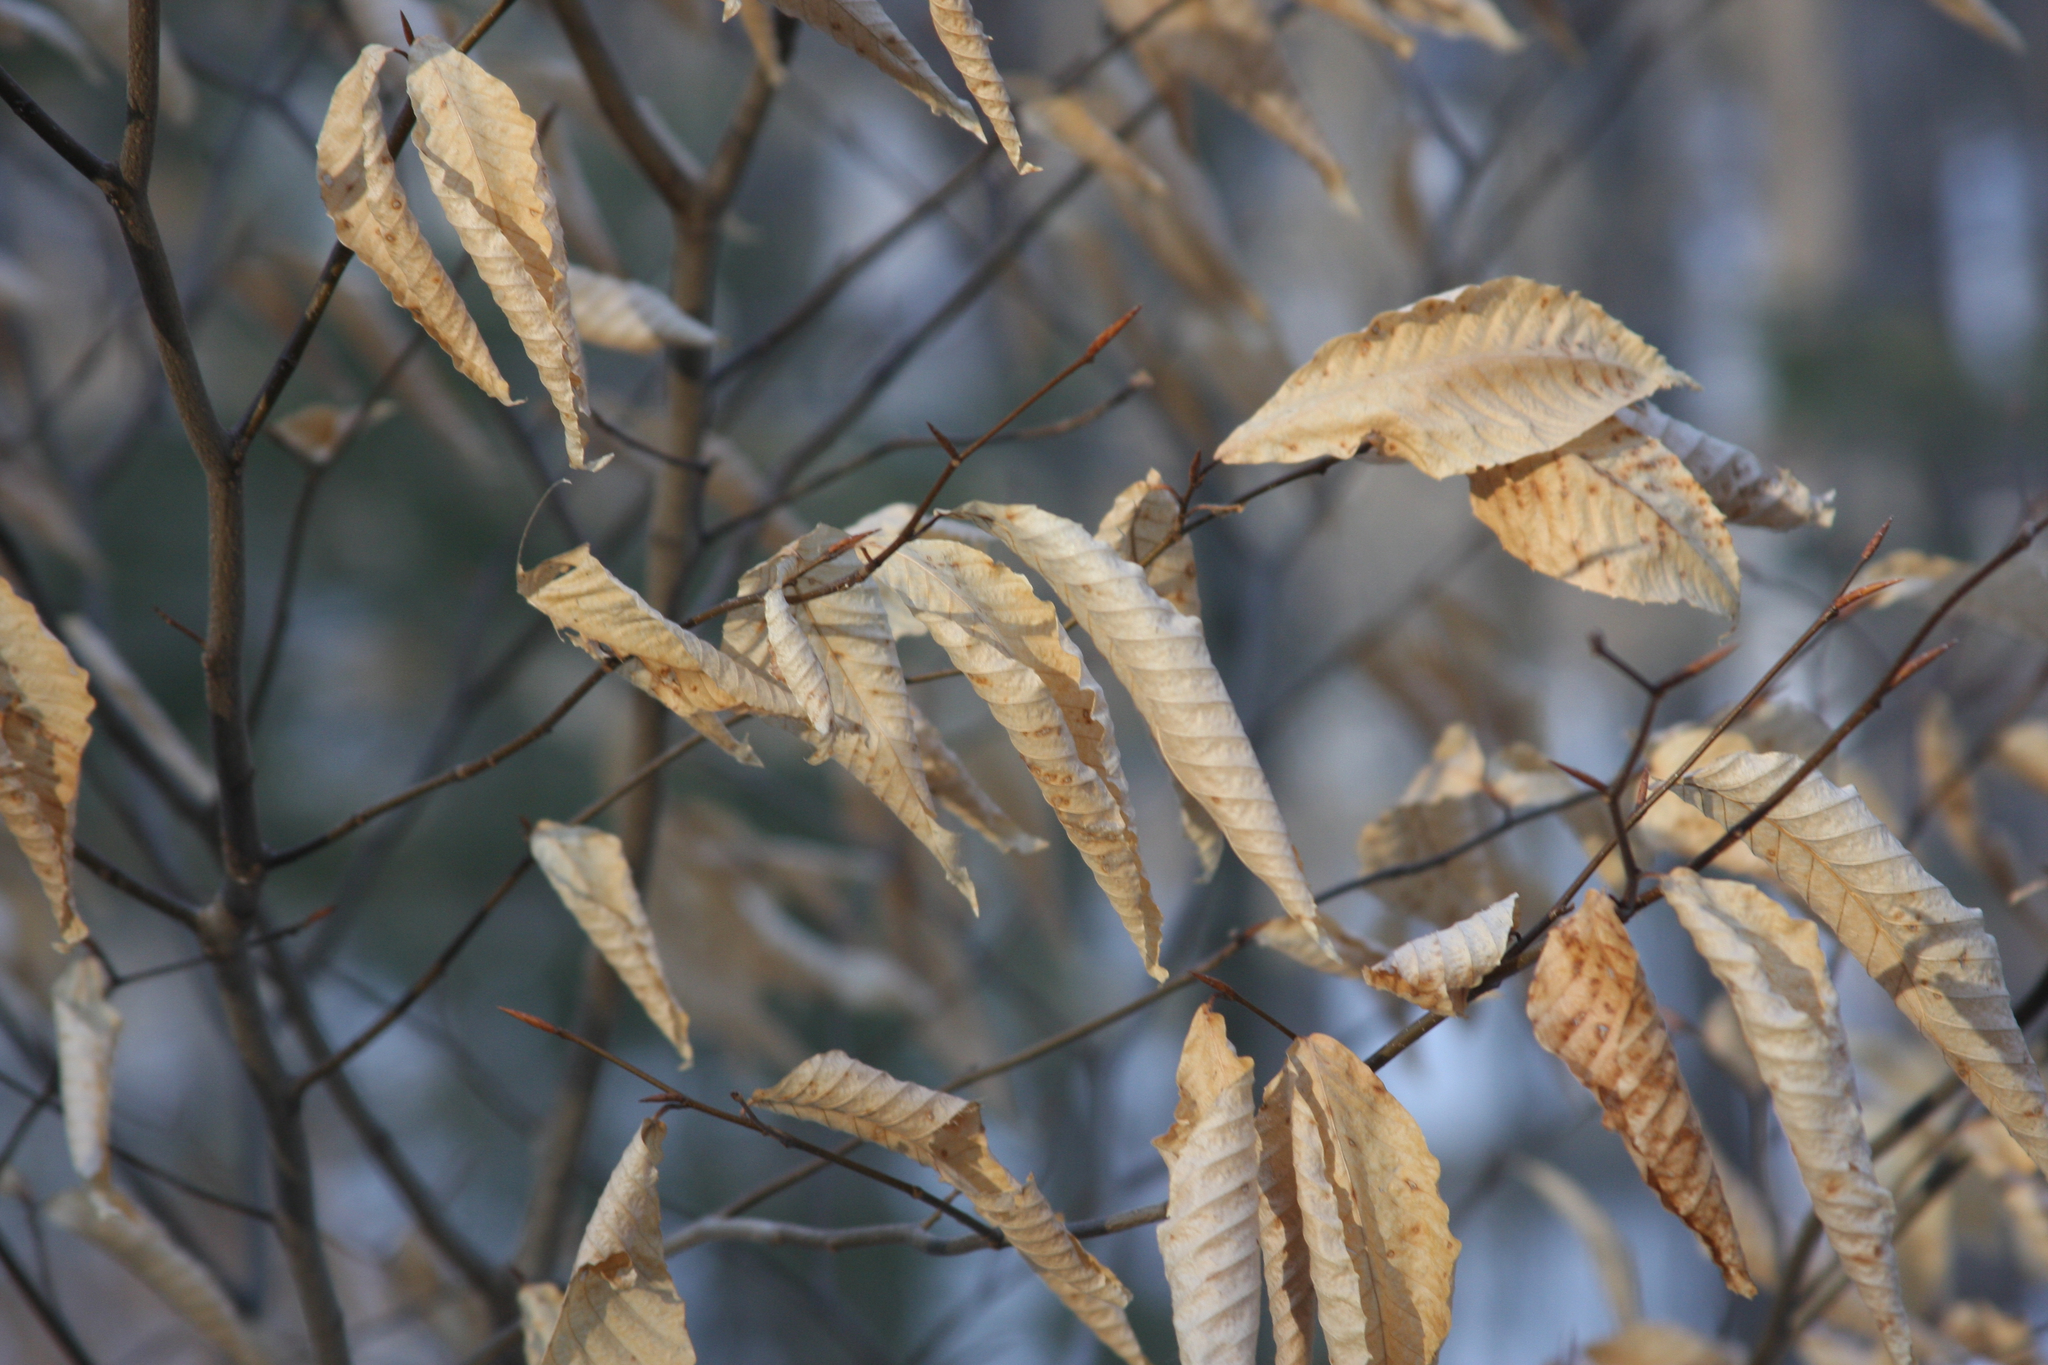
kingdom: Plantae
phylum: Tracheophyta
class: Magnoliopsida
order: Fagales
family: Fagaceae
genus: Fagus
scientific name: Fagus grandifolia
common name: American beech
